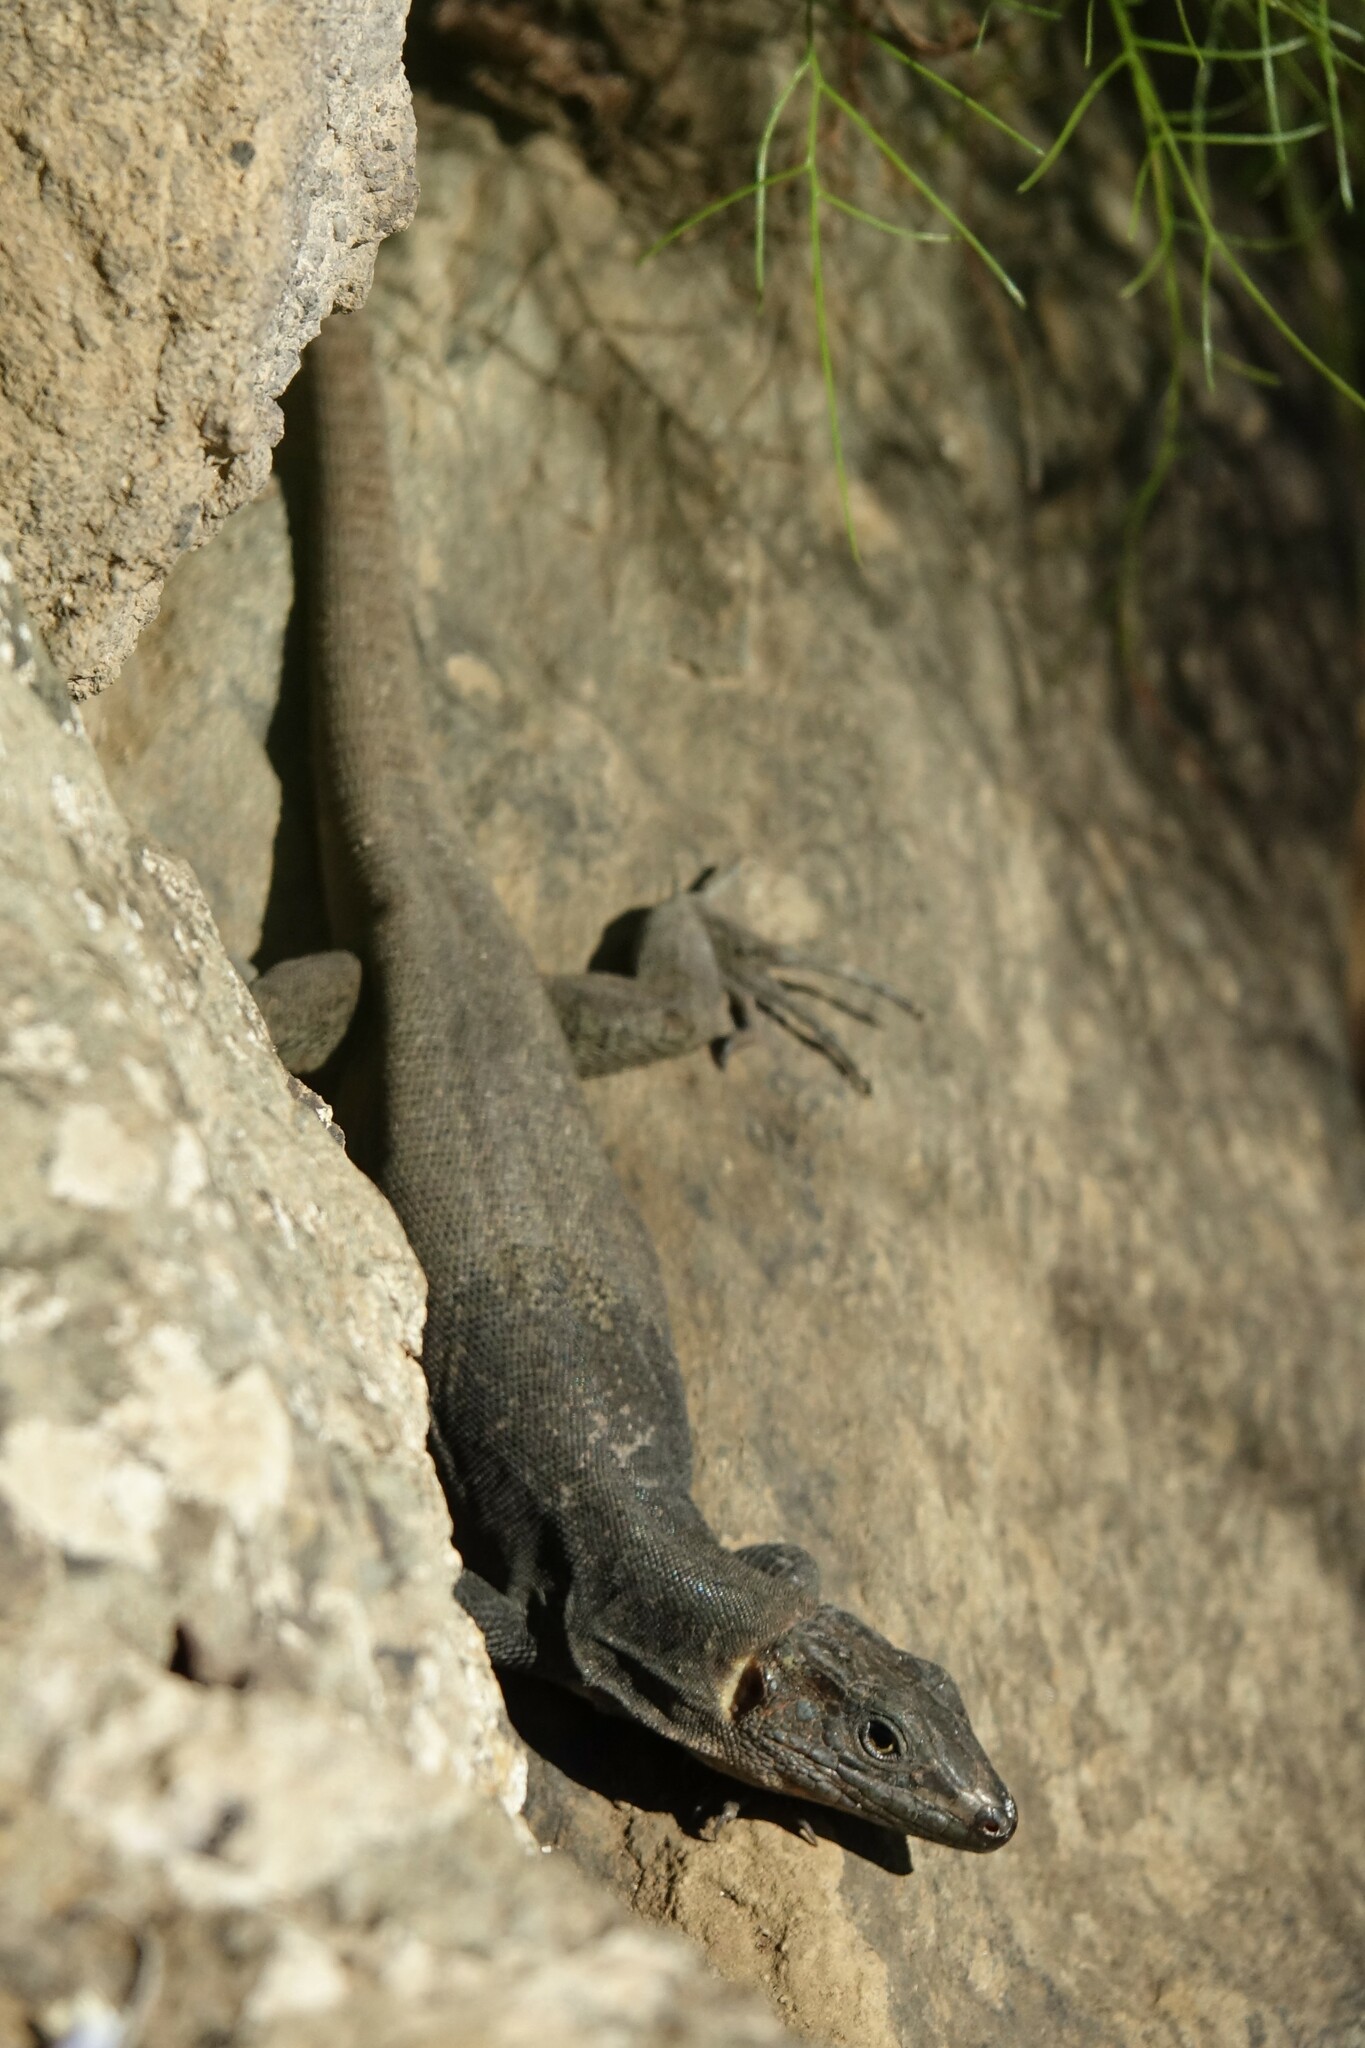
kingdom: Animalia
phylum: Chordata
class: Squamata
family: Lacertidae
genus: Gallotia
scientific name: Gallotia stehlini
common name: Gran canaria giant lizard
